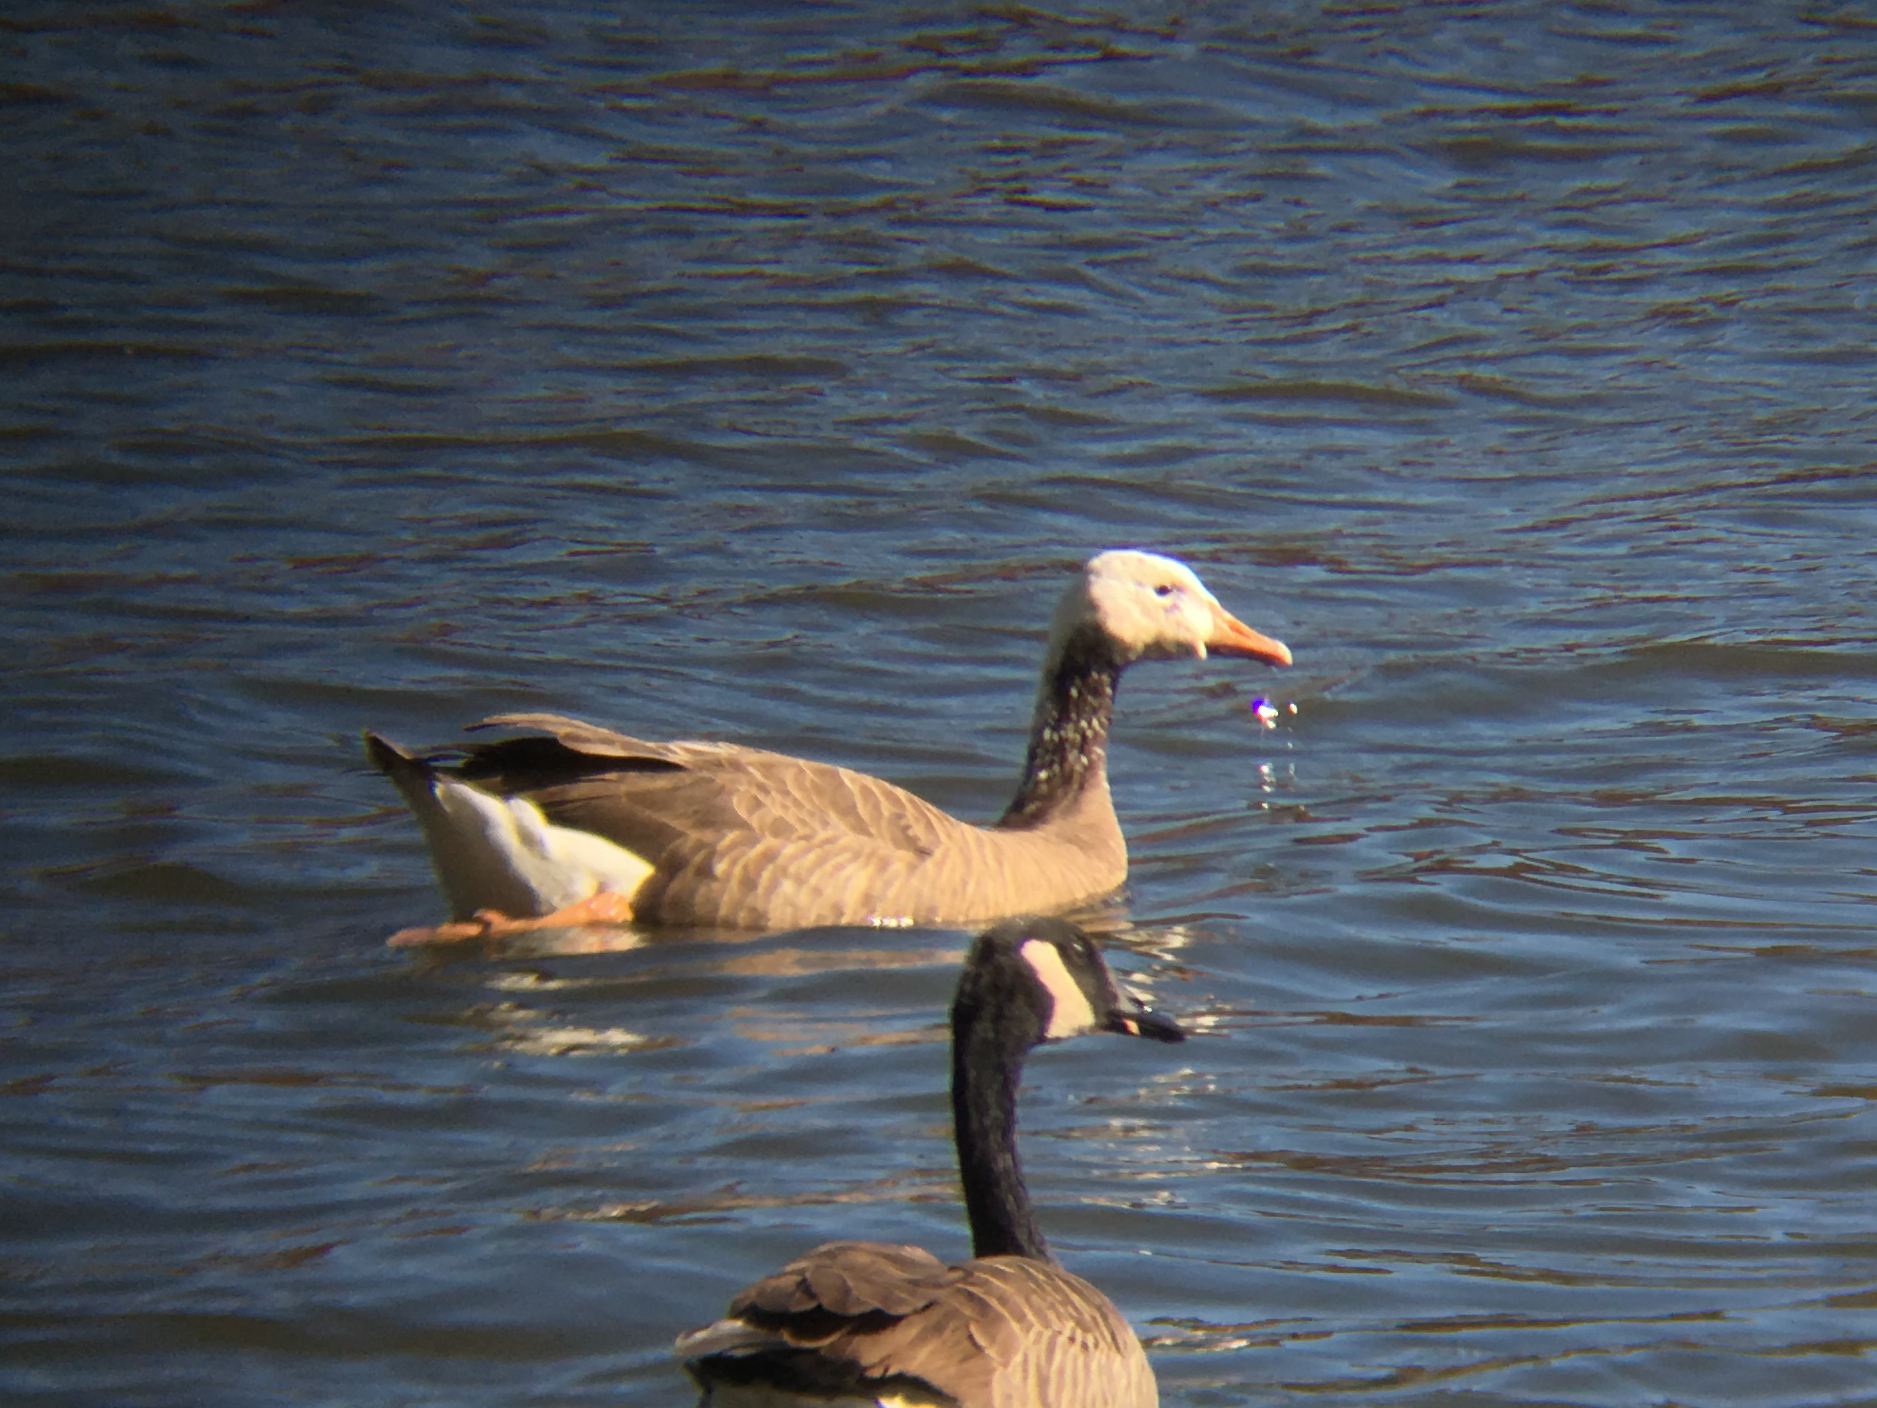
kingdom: Animalia
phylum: Chordata
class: Aves
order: Anseriformes
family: Anatidae
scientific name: Anatidae
